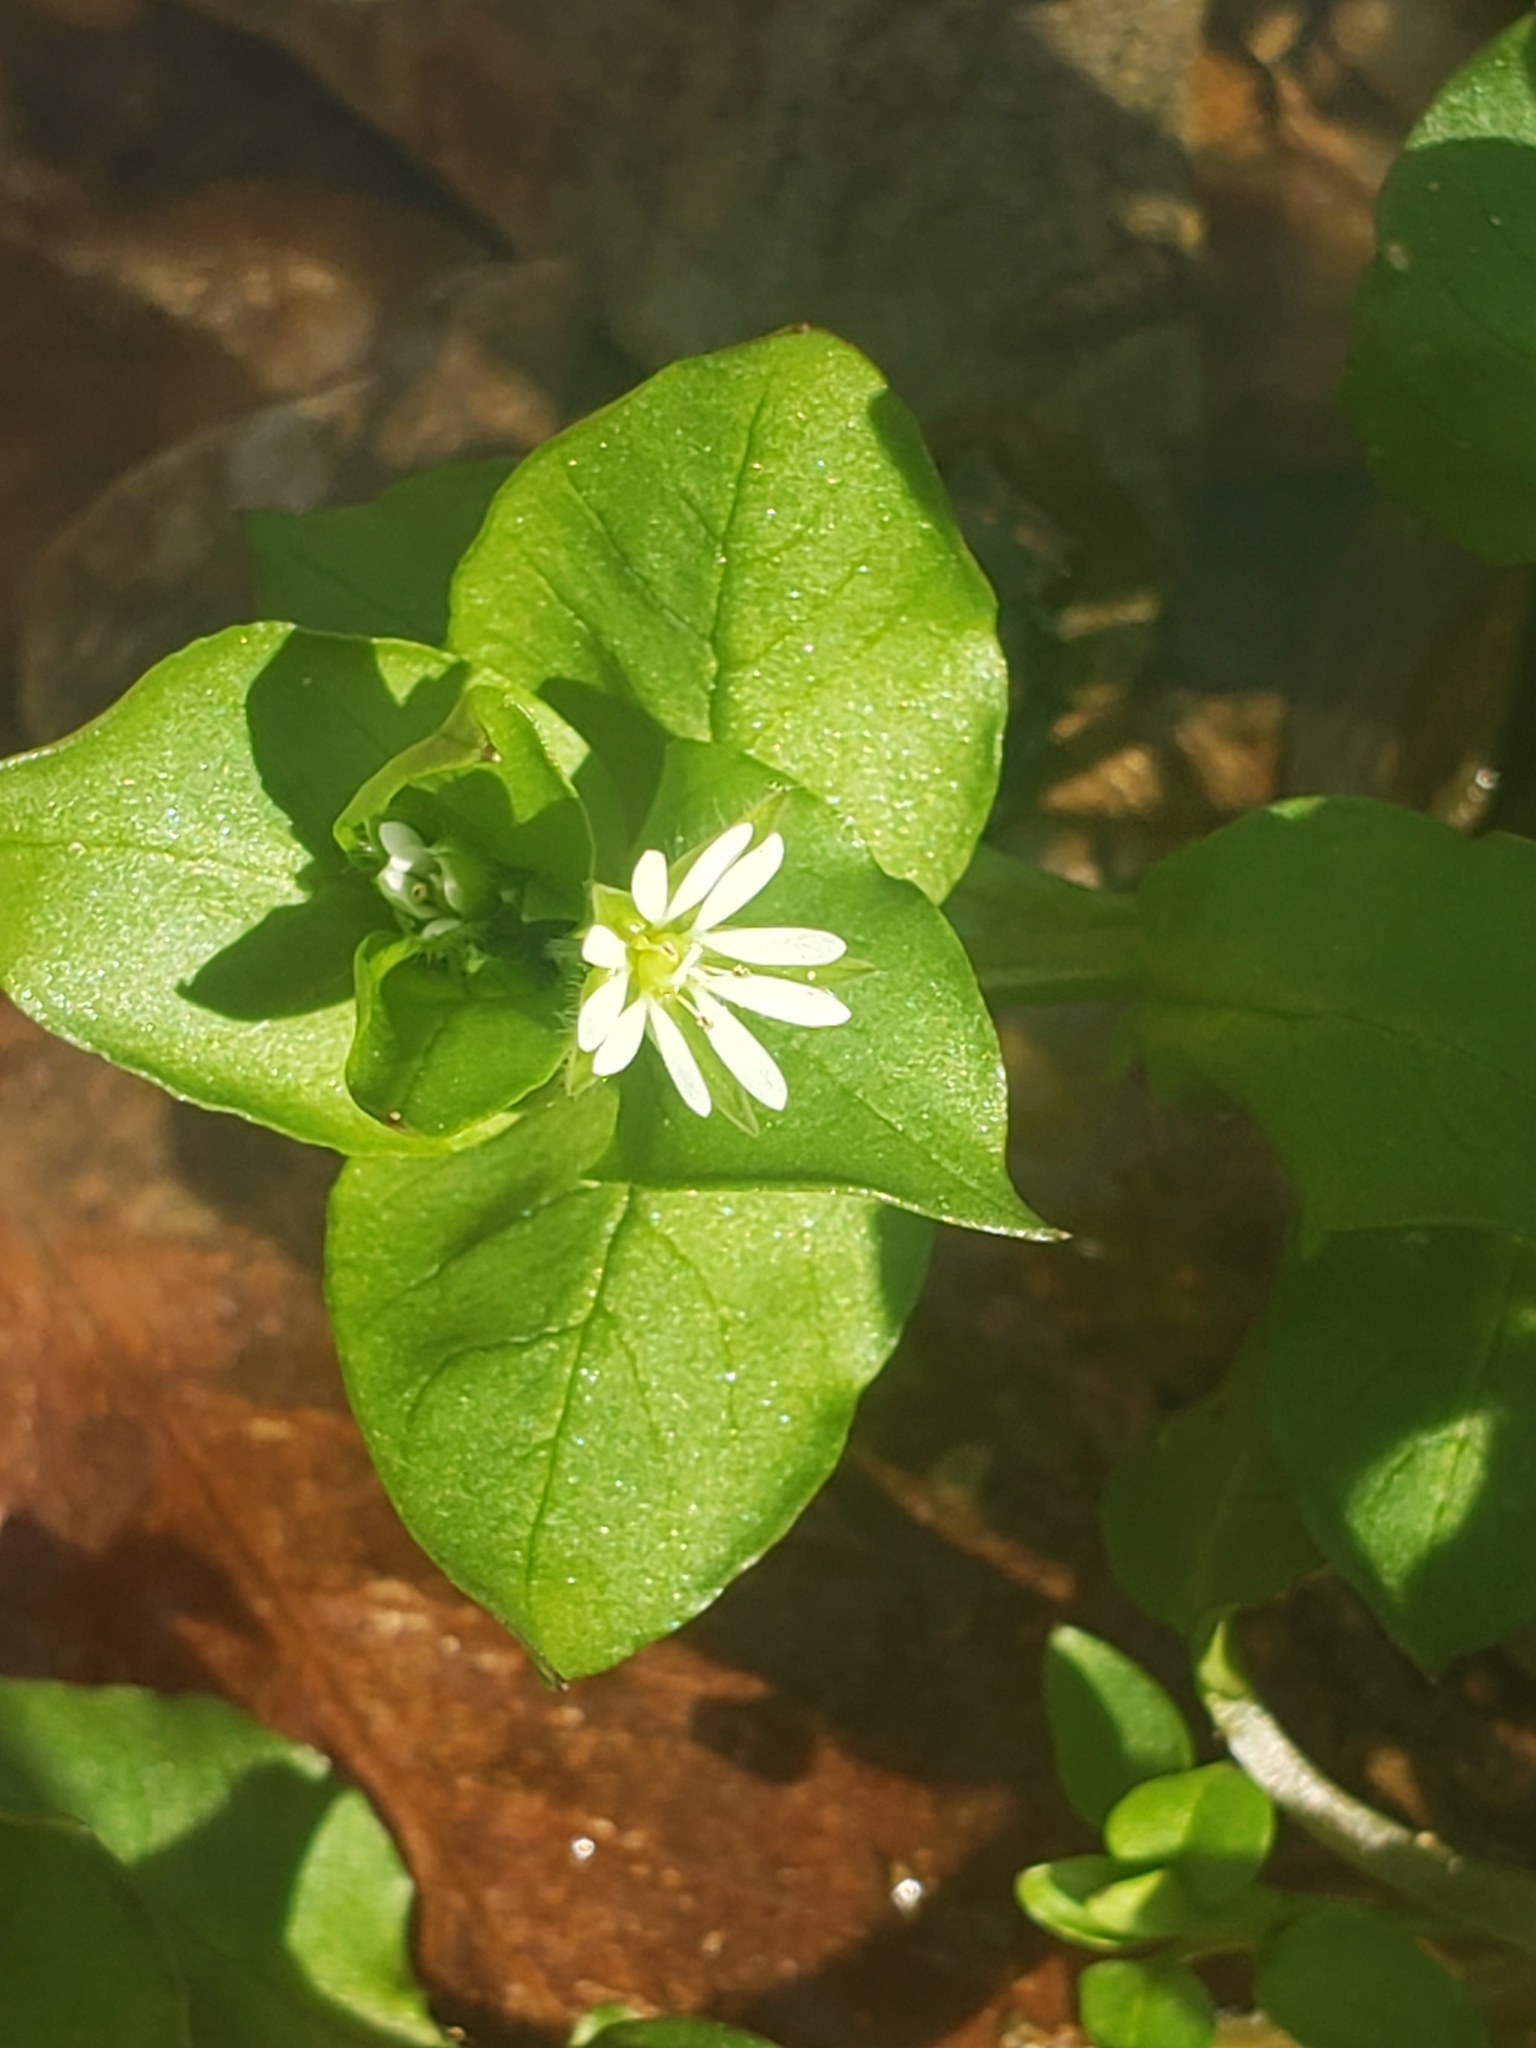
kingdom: Plantae
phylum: Tracheophyta
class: Magnoliopsida
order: Caryophyllales
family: Caryophyllaceae
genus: Stellaria
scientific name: Stellaria media
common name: Common chickweed
